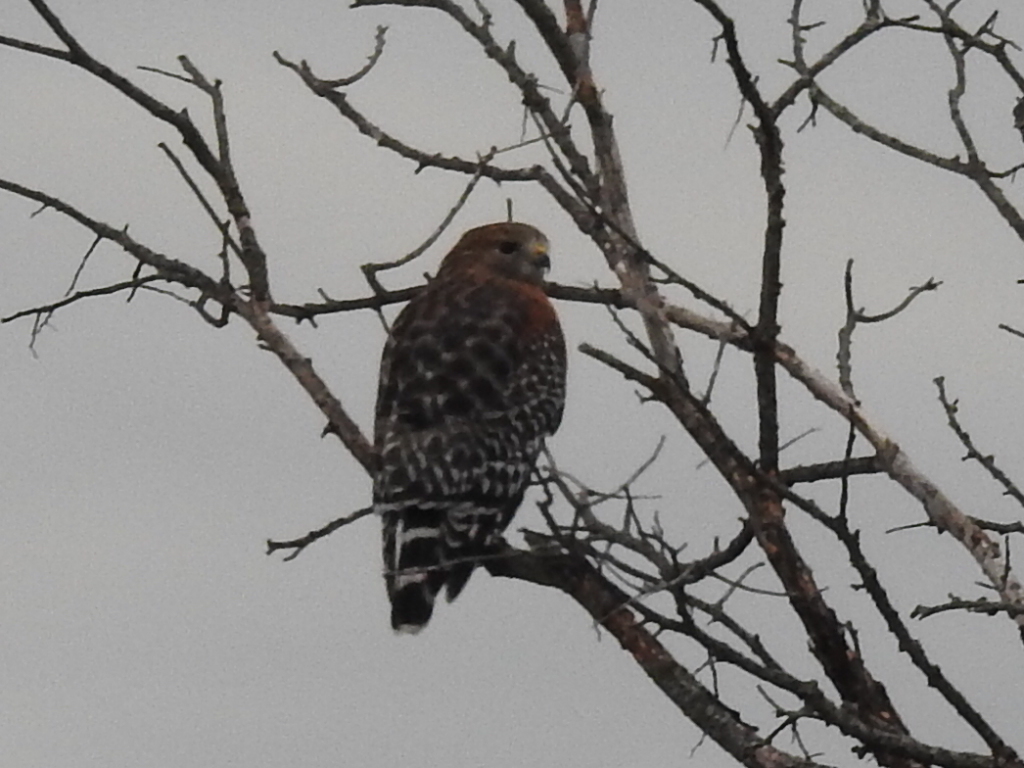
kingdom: Animalia
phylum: Chordata
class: Aves
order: Accipitriformes
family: Accipitridae
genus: Buteo
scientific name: Buteo lineatus
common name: Red-shouldered hawk
